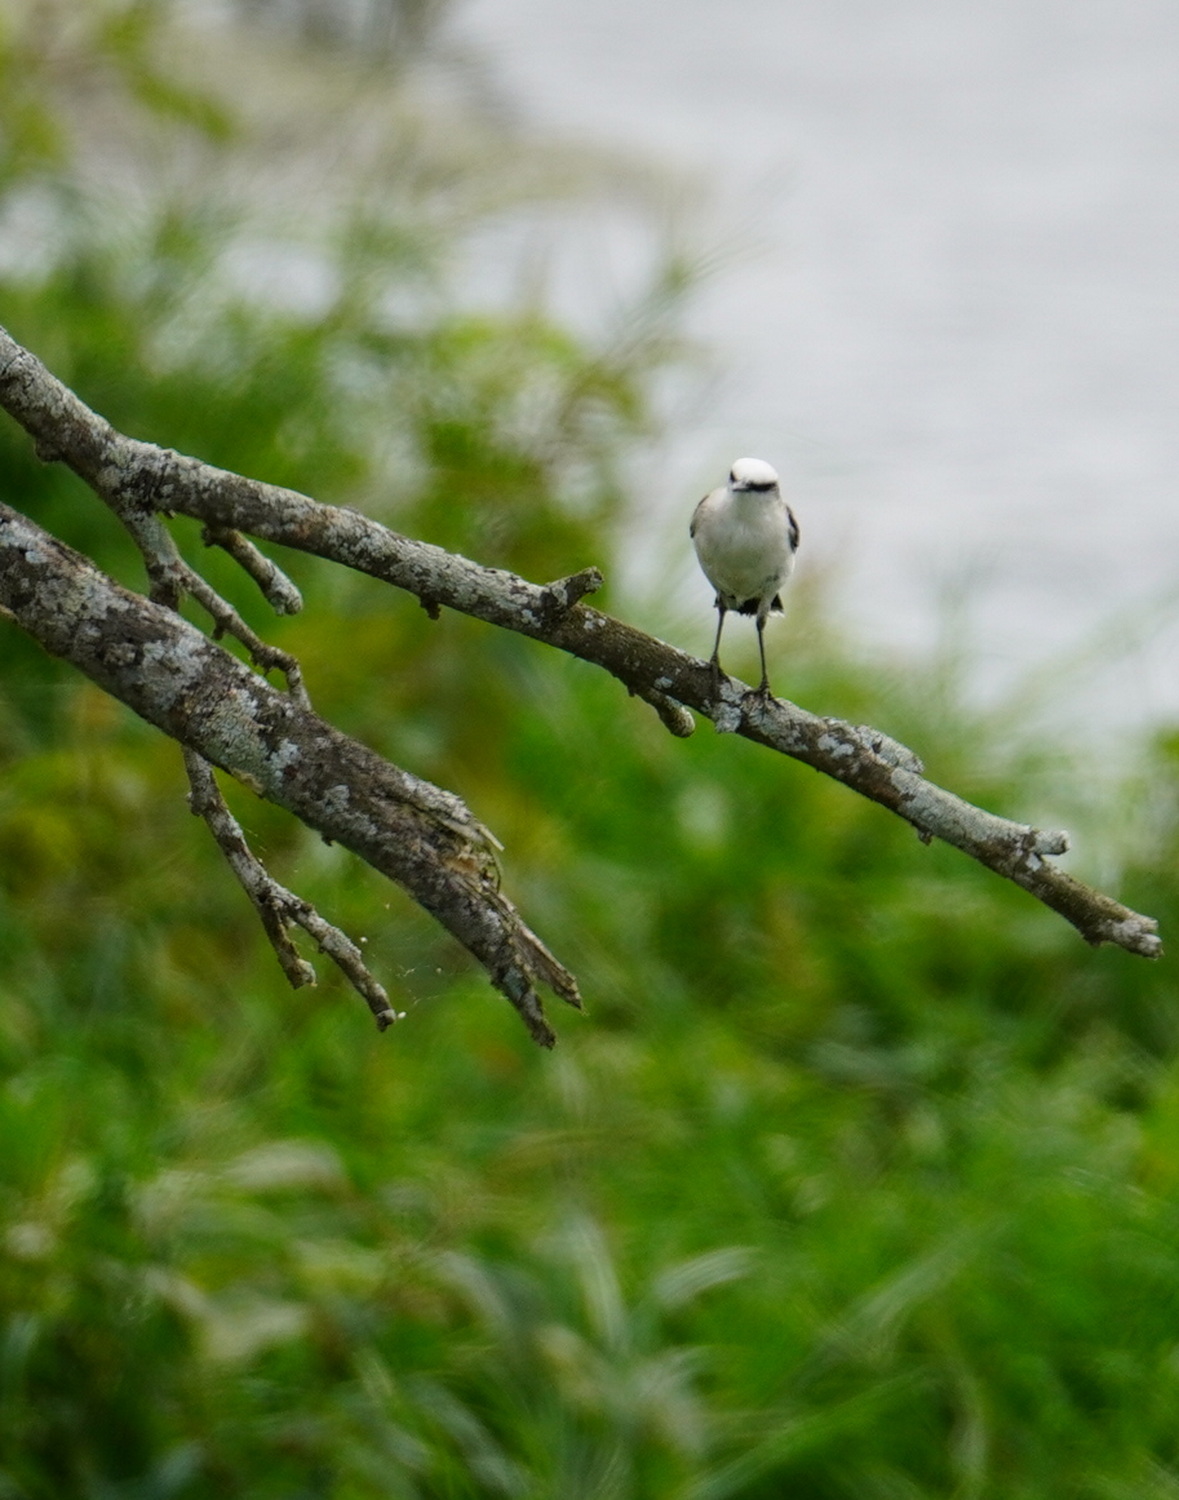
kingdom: Animalia
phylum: Chordata
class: Aves
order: Passeriformes
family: Tyrannidae
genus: Fluvicola
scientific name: Fluvicola nengeta
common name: Masked water tyrant
